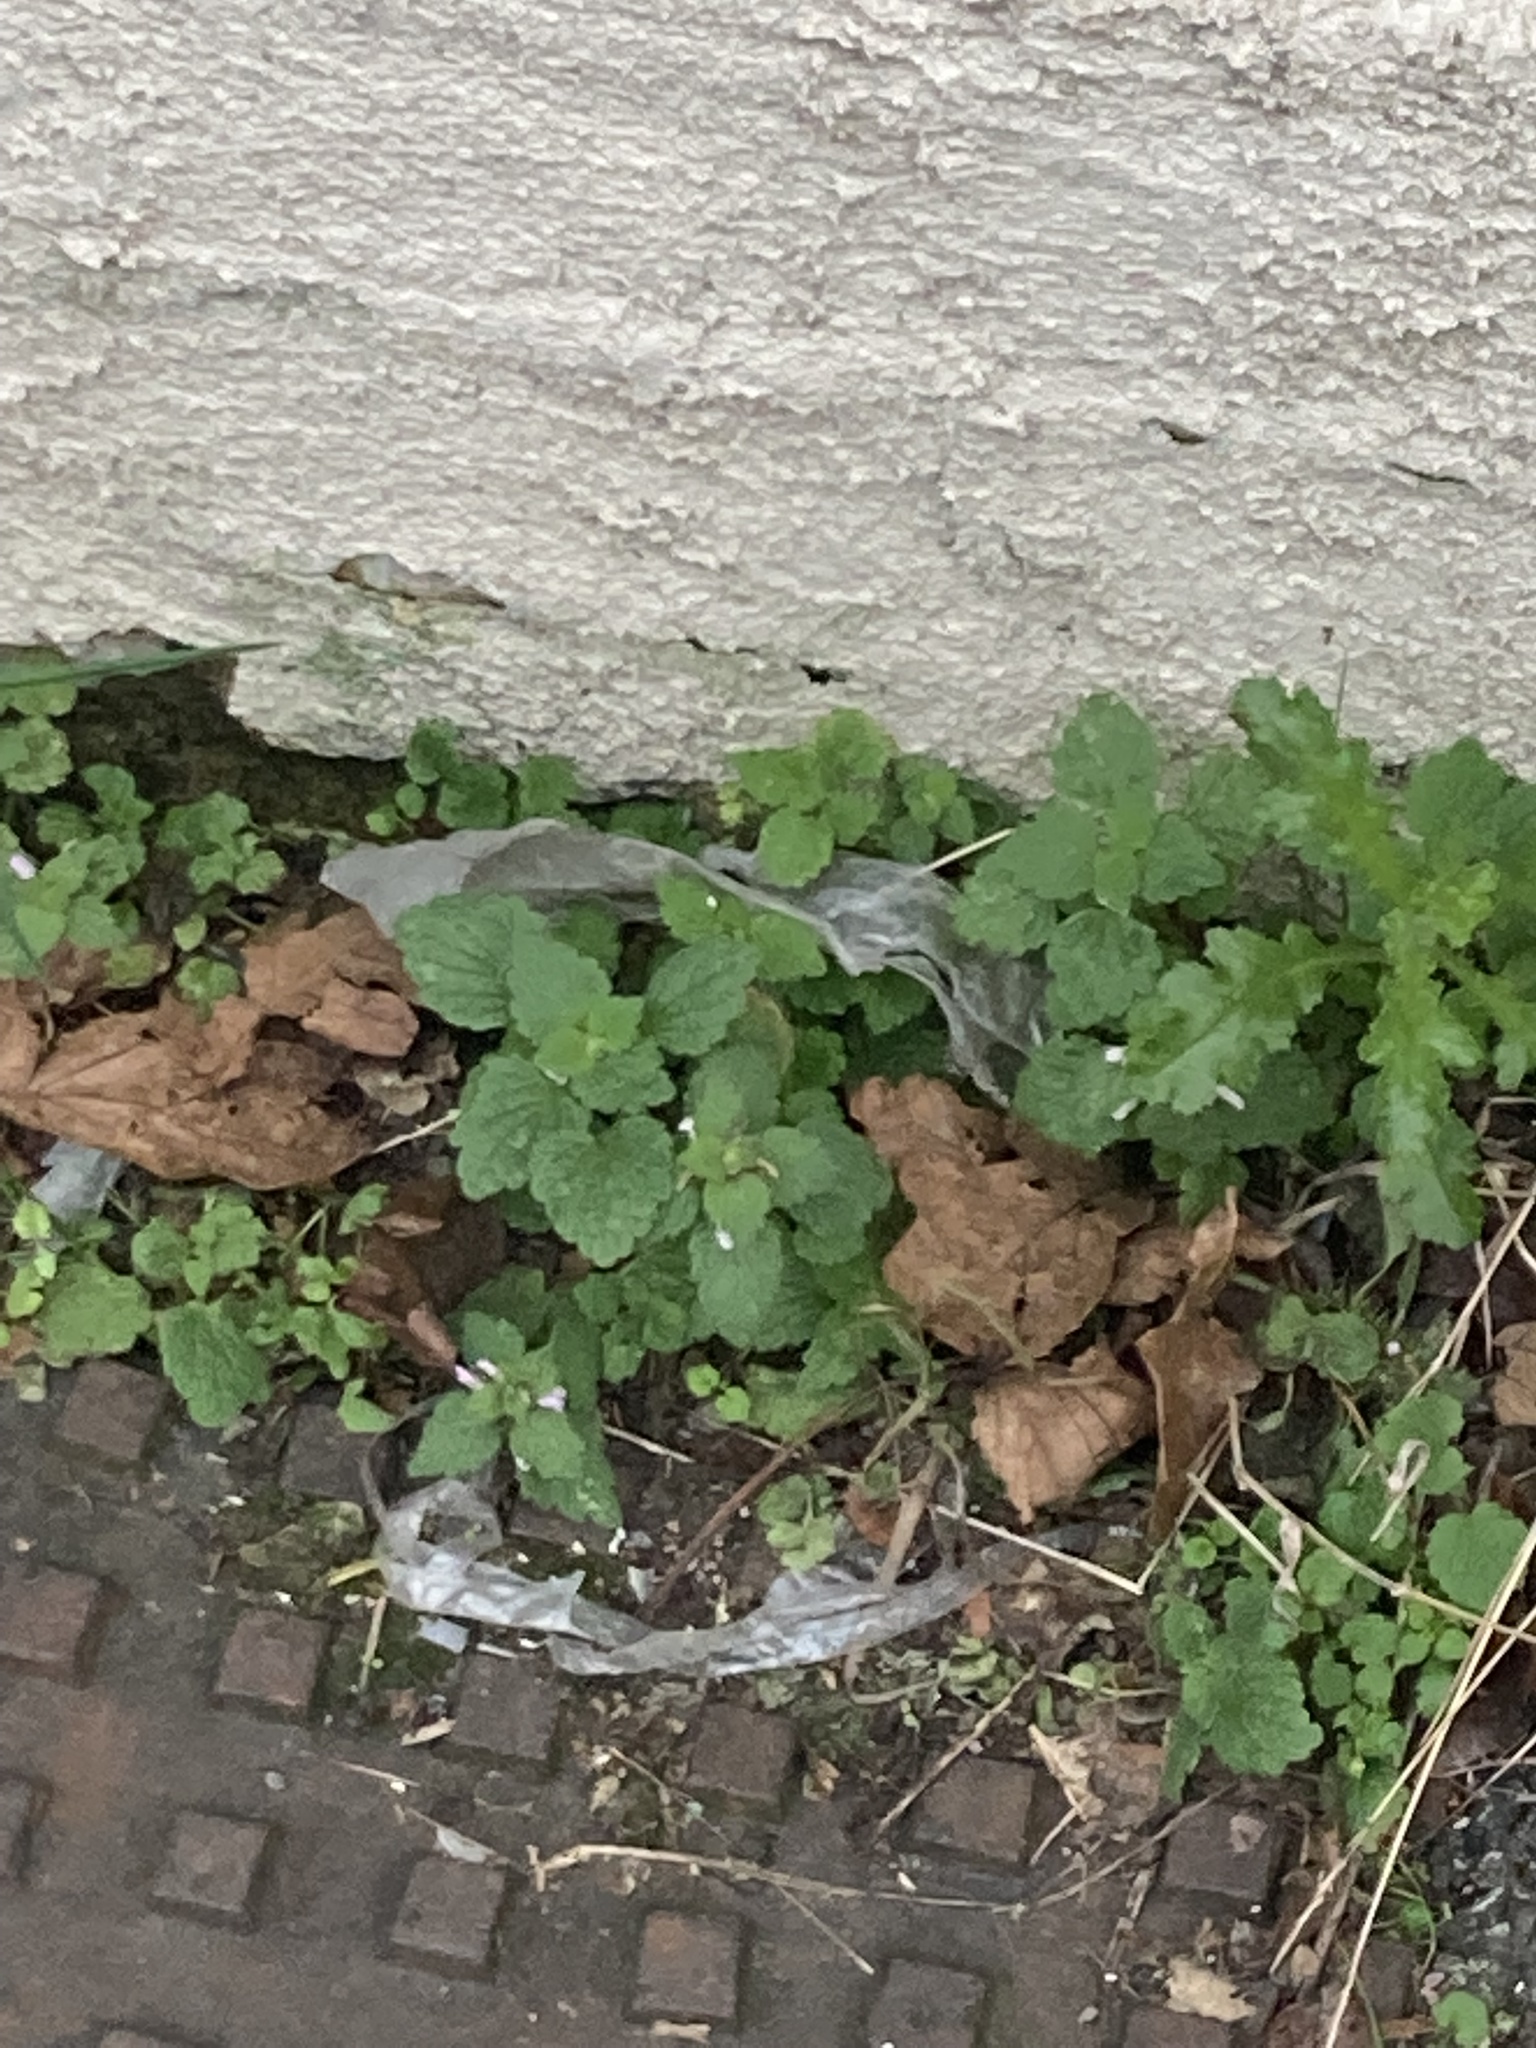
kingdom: Plantae
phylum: Tracheophyta
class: Magnoliopsida
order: Lamiales
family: Lamiaceae
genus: Lamium
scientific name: Lamium purpureum
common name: Red dead-nettle
